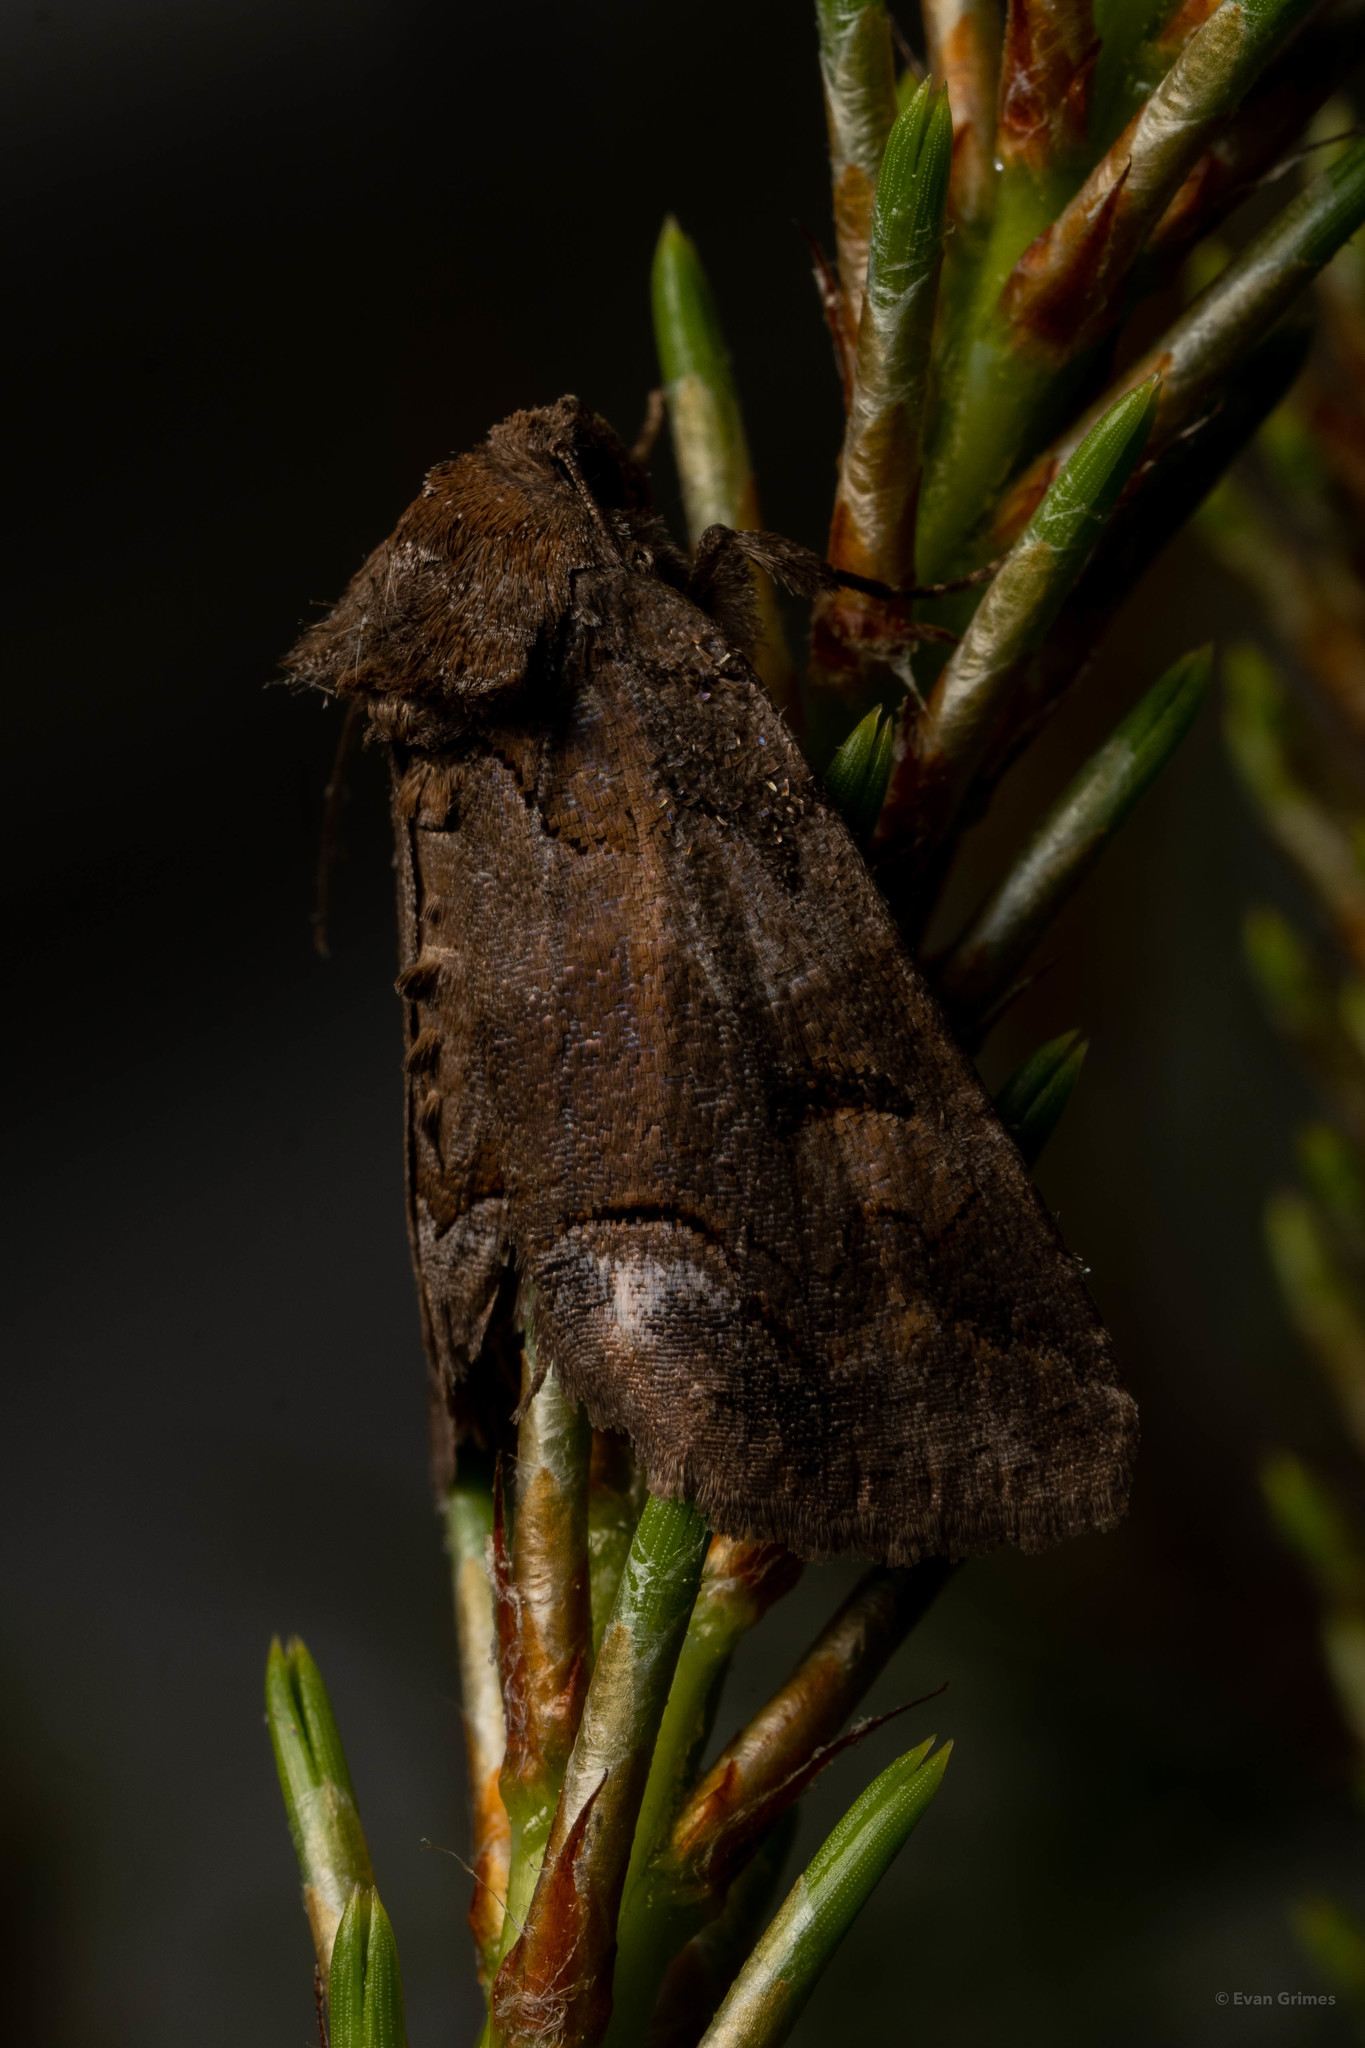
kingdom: Animalia
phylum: Arthropoda
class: Insecta
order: Lepidoptera
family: Erebidae
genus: Zale
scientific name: Zale helata
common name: Brown-spotted zale moth
